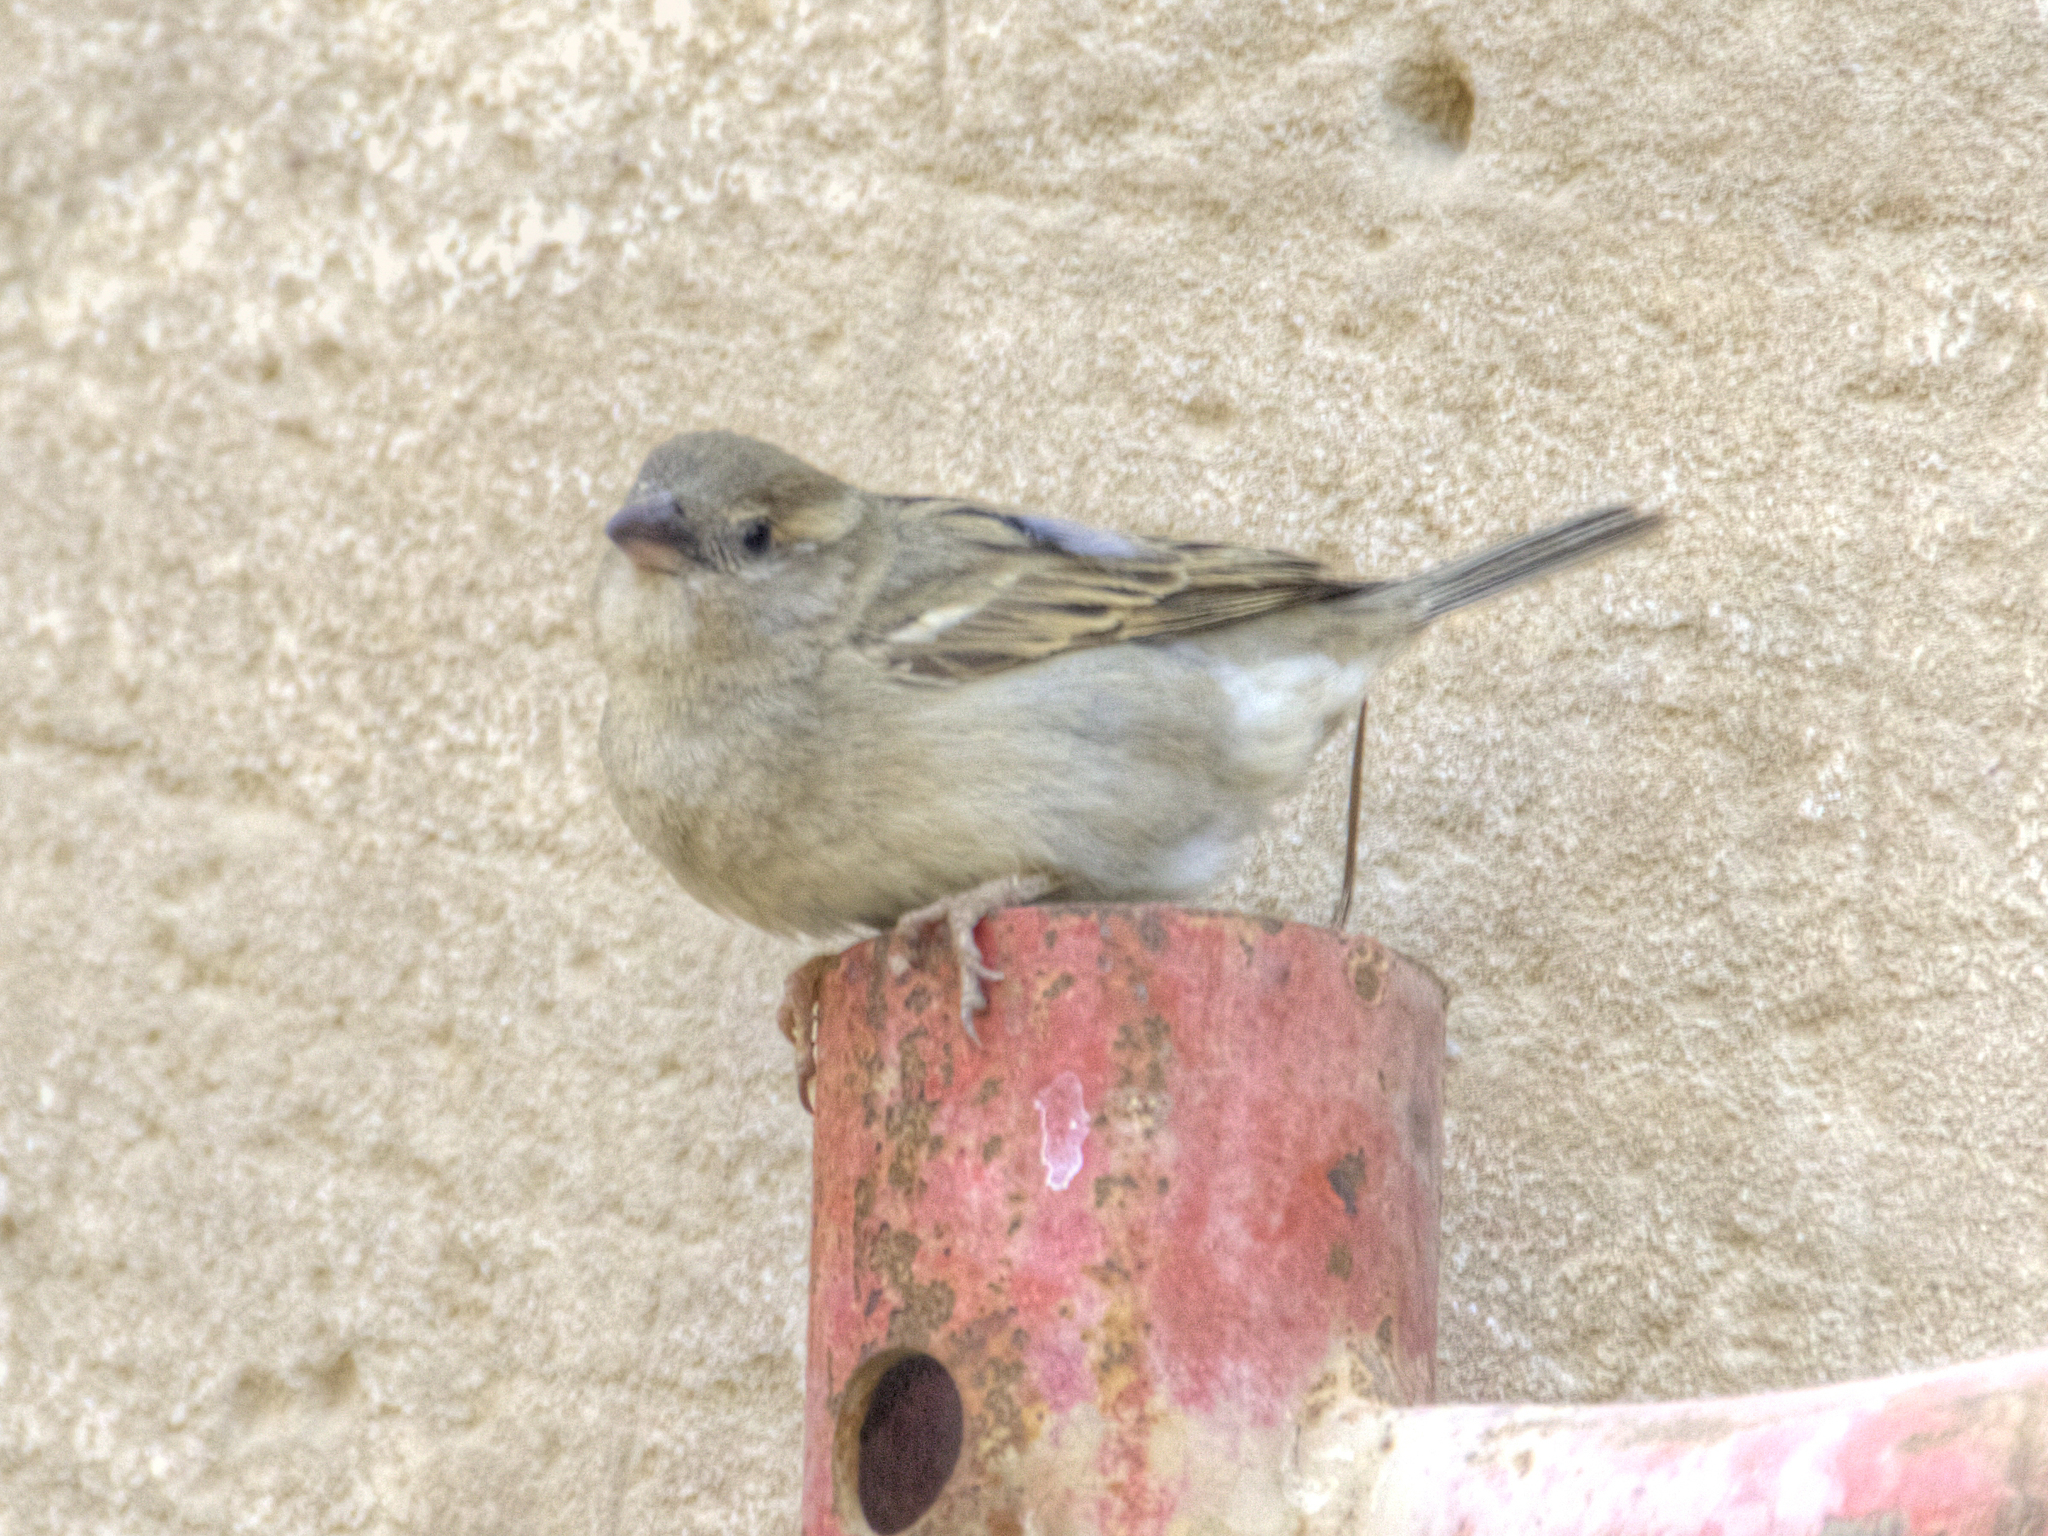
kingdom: Animalia
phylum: Chordata
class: Aves
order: Passeriformes
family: Passeridae
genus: Passer
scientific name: Passer domesticus
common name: House sparrow
